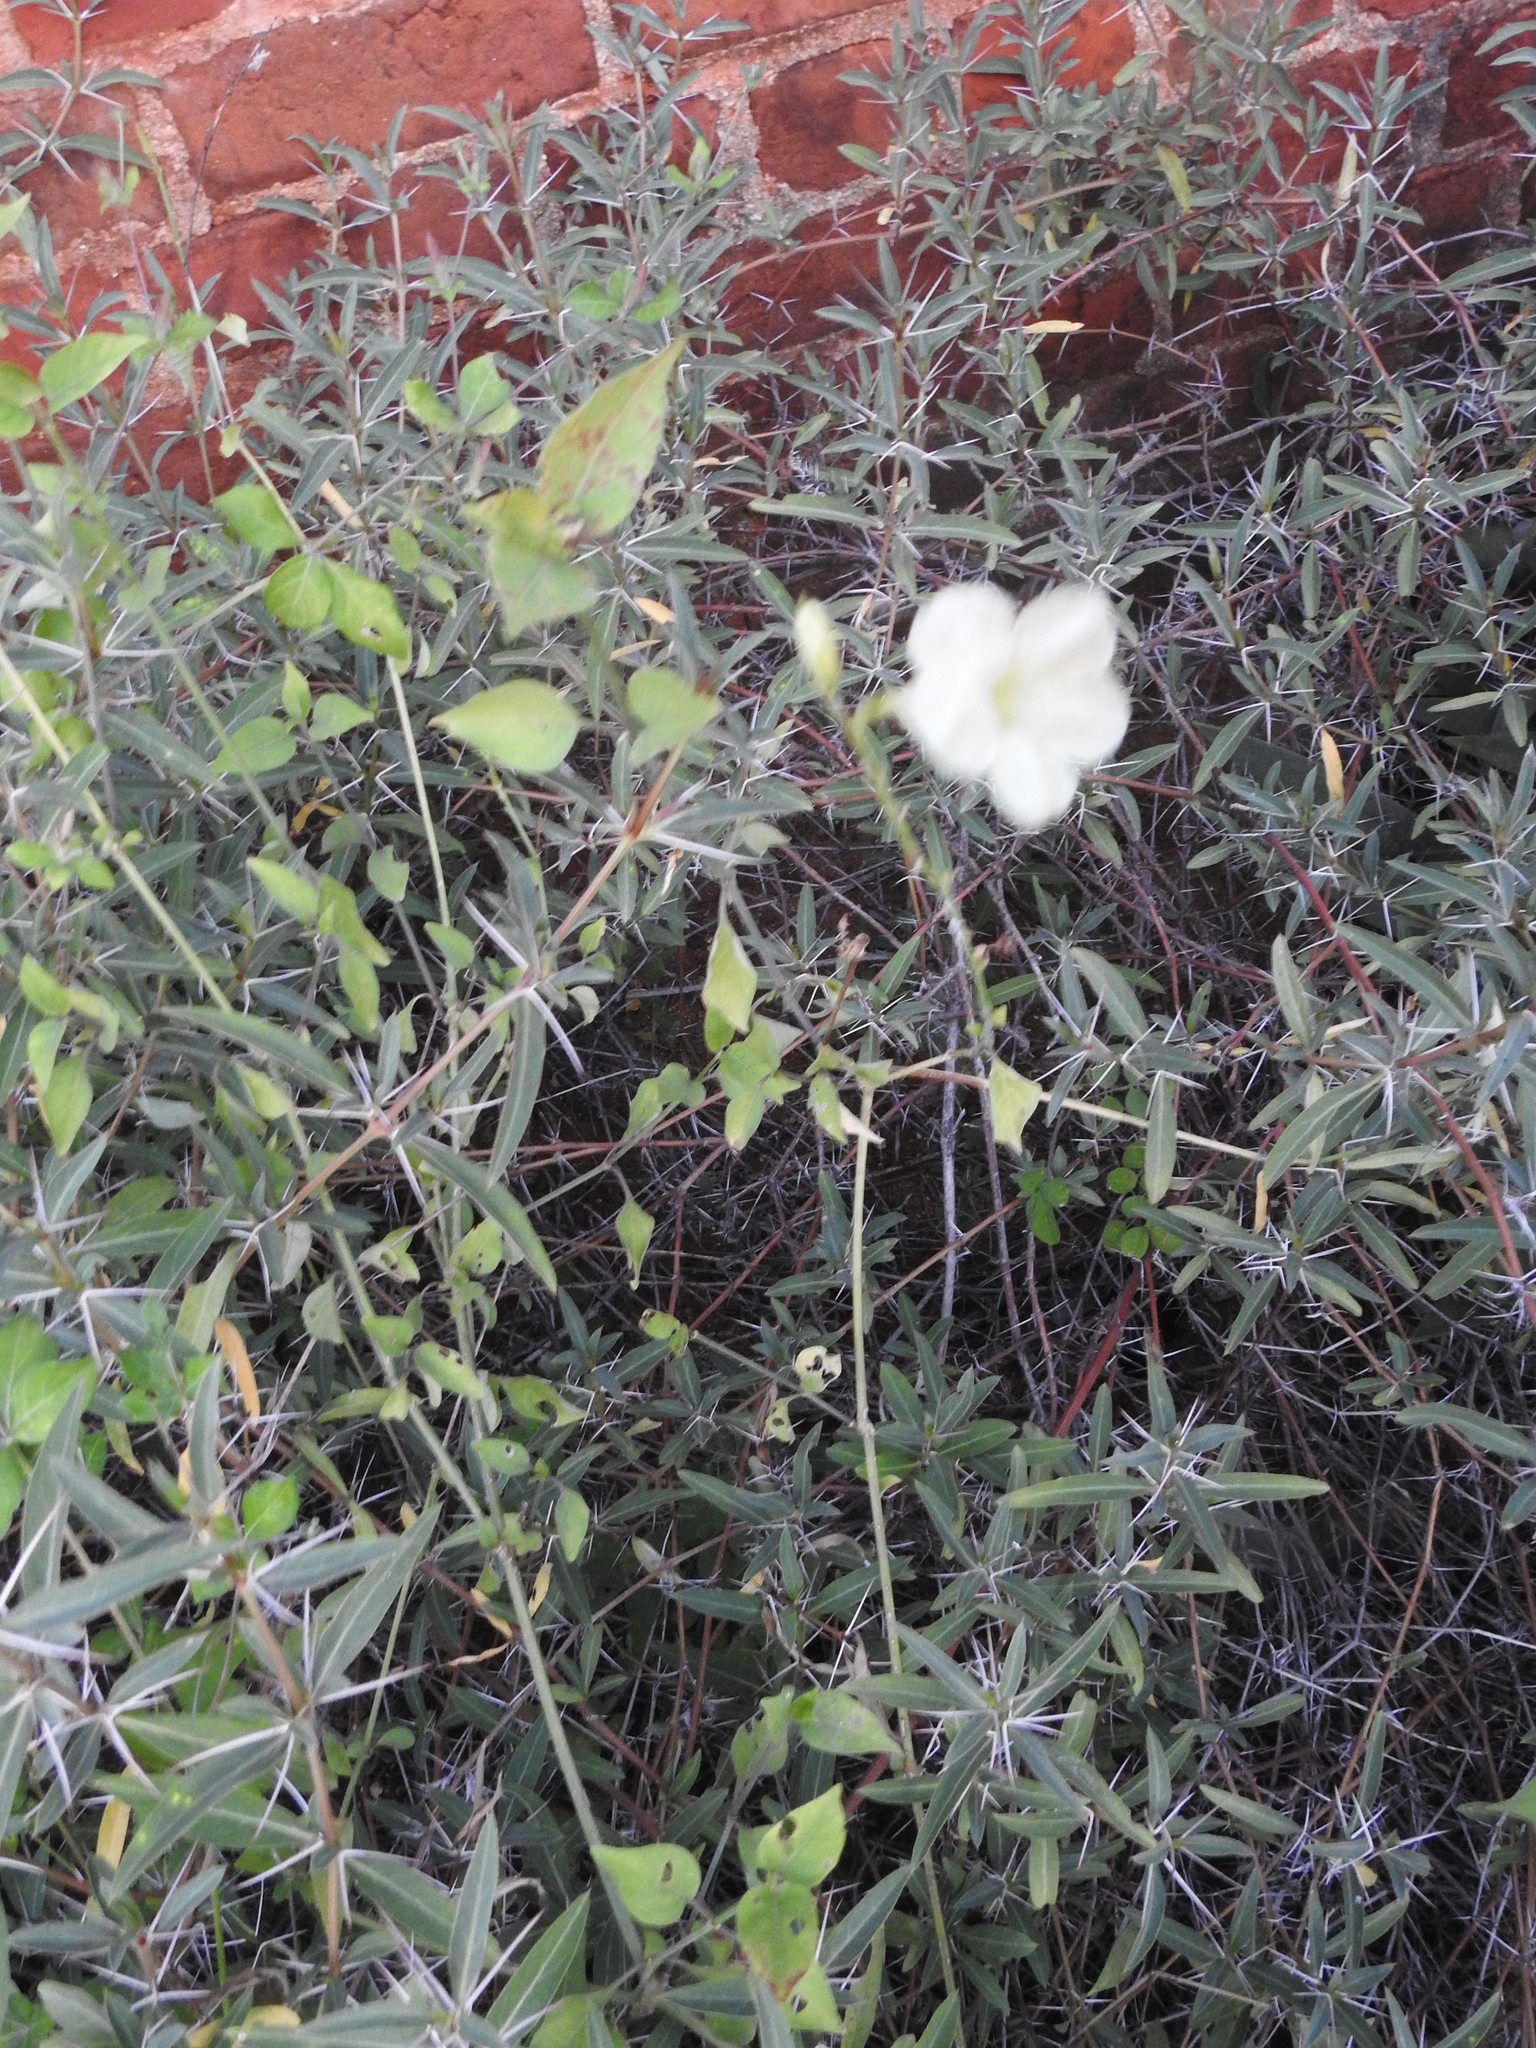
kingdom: Plantae
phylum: Tracheophyta
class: Magnoliopsida
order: Lamiales
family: Acanthaceae
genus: Asystasia
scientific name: Asystasia gangetica
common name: Chinese violet
